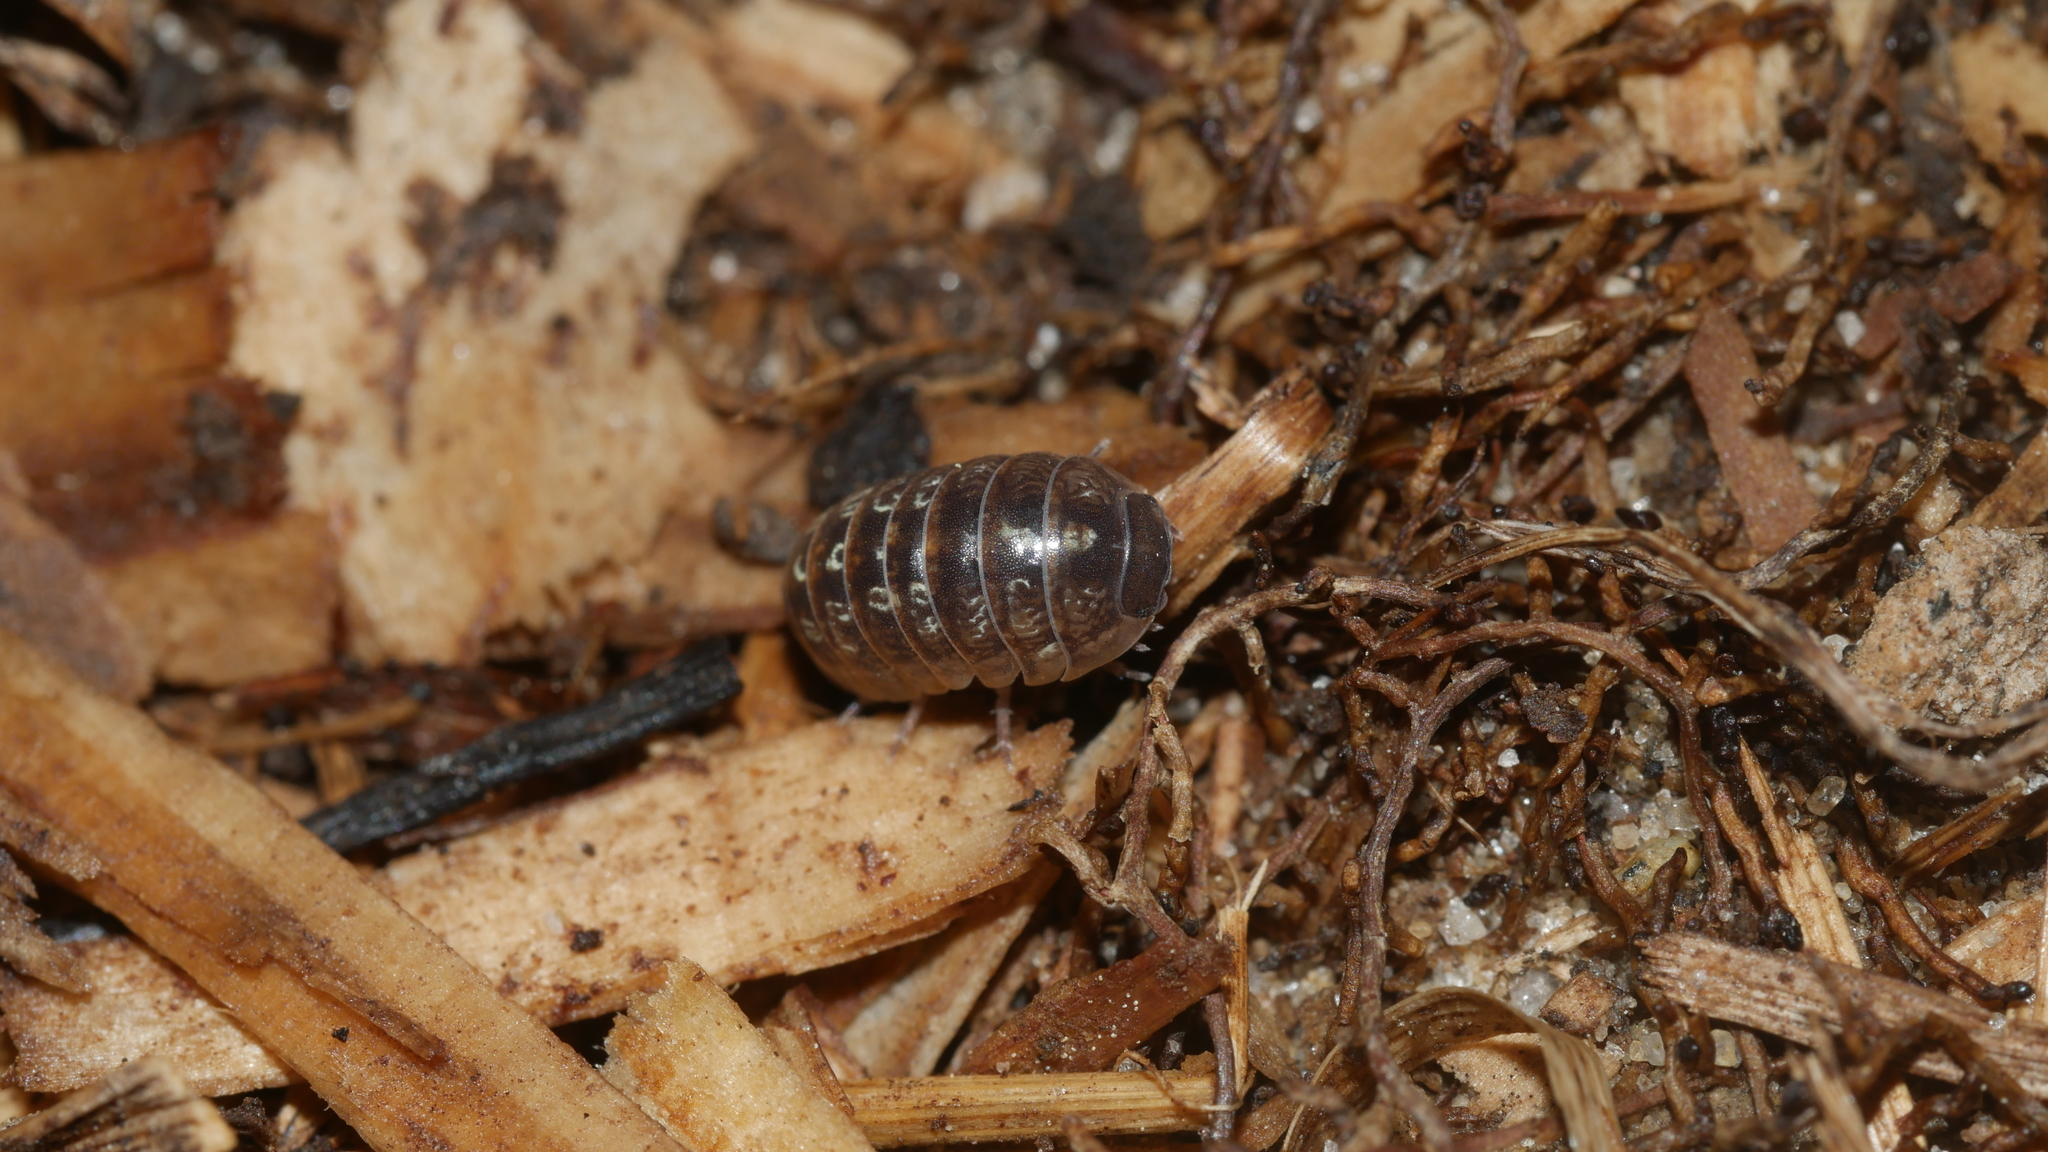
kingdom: Animalia
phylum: Arthropoda
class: Malacostraca
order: Isopoda
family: Armadillidiidae
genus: Armadillidium
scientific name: Armadillidium vulgare
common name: Common pill woodlouse
